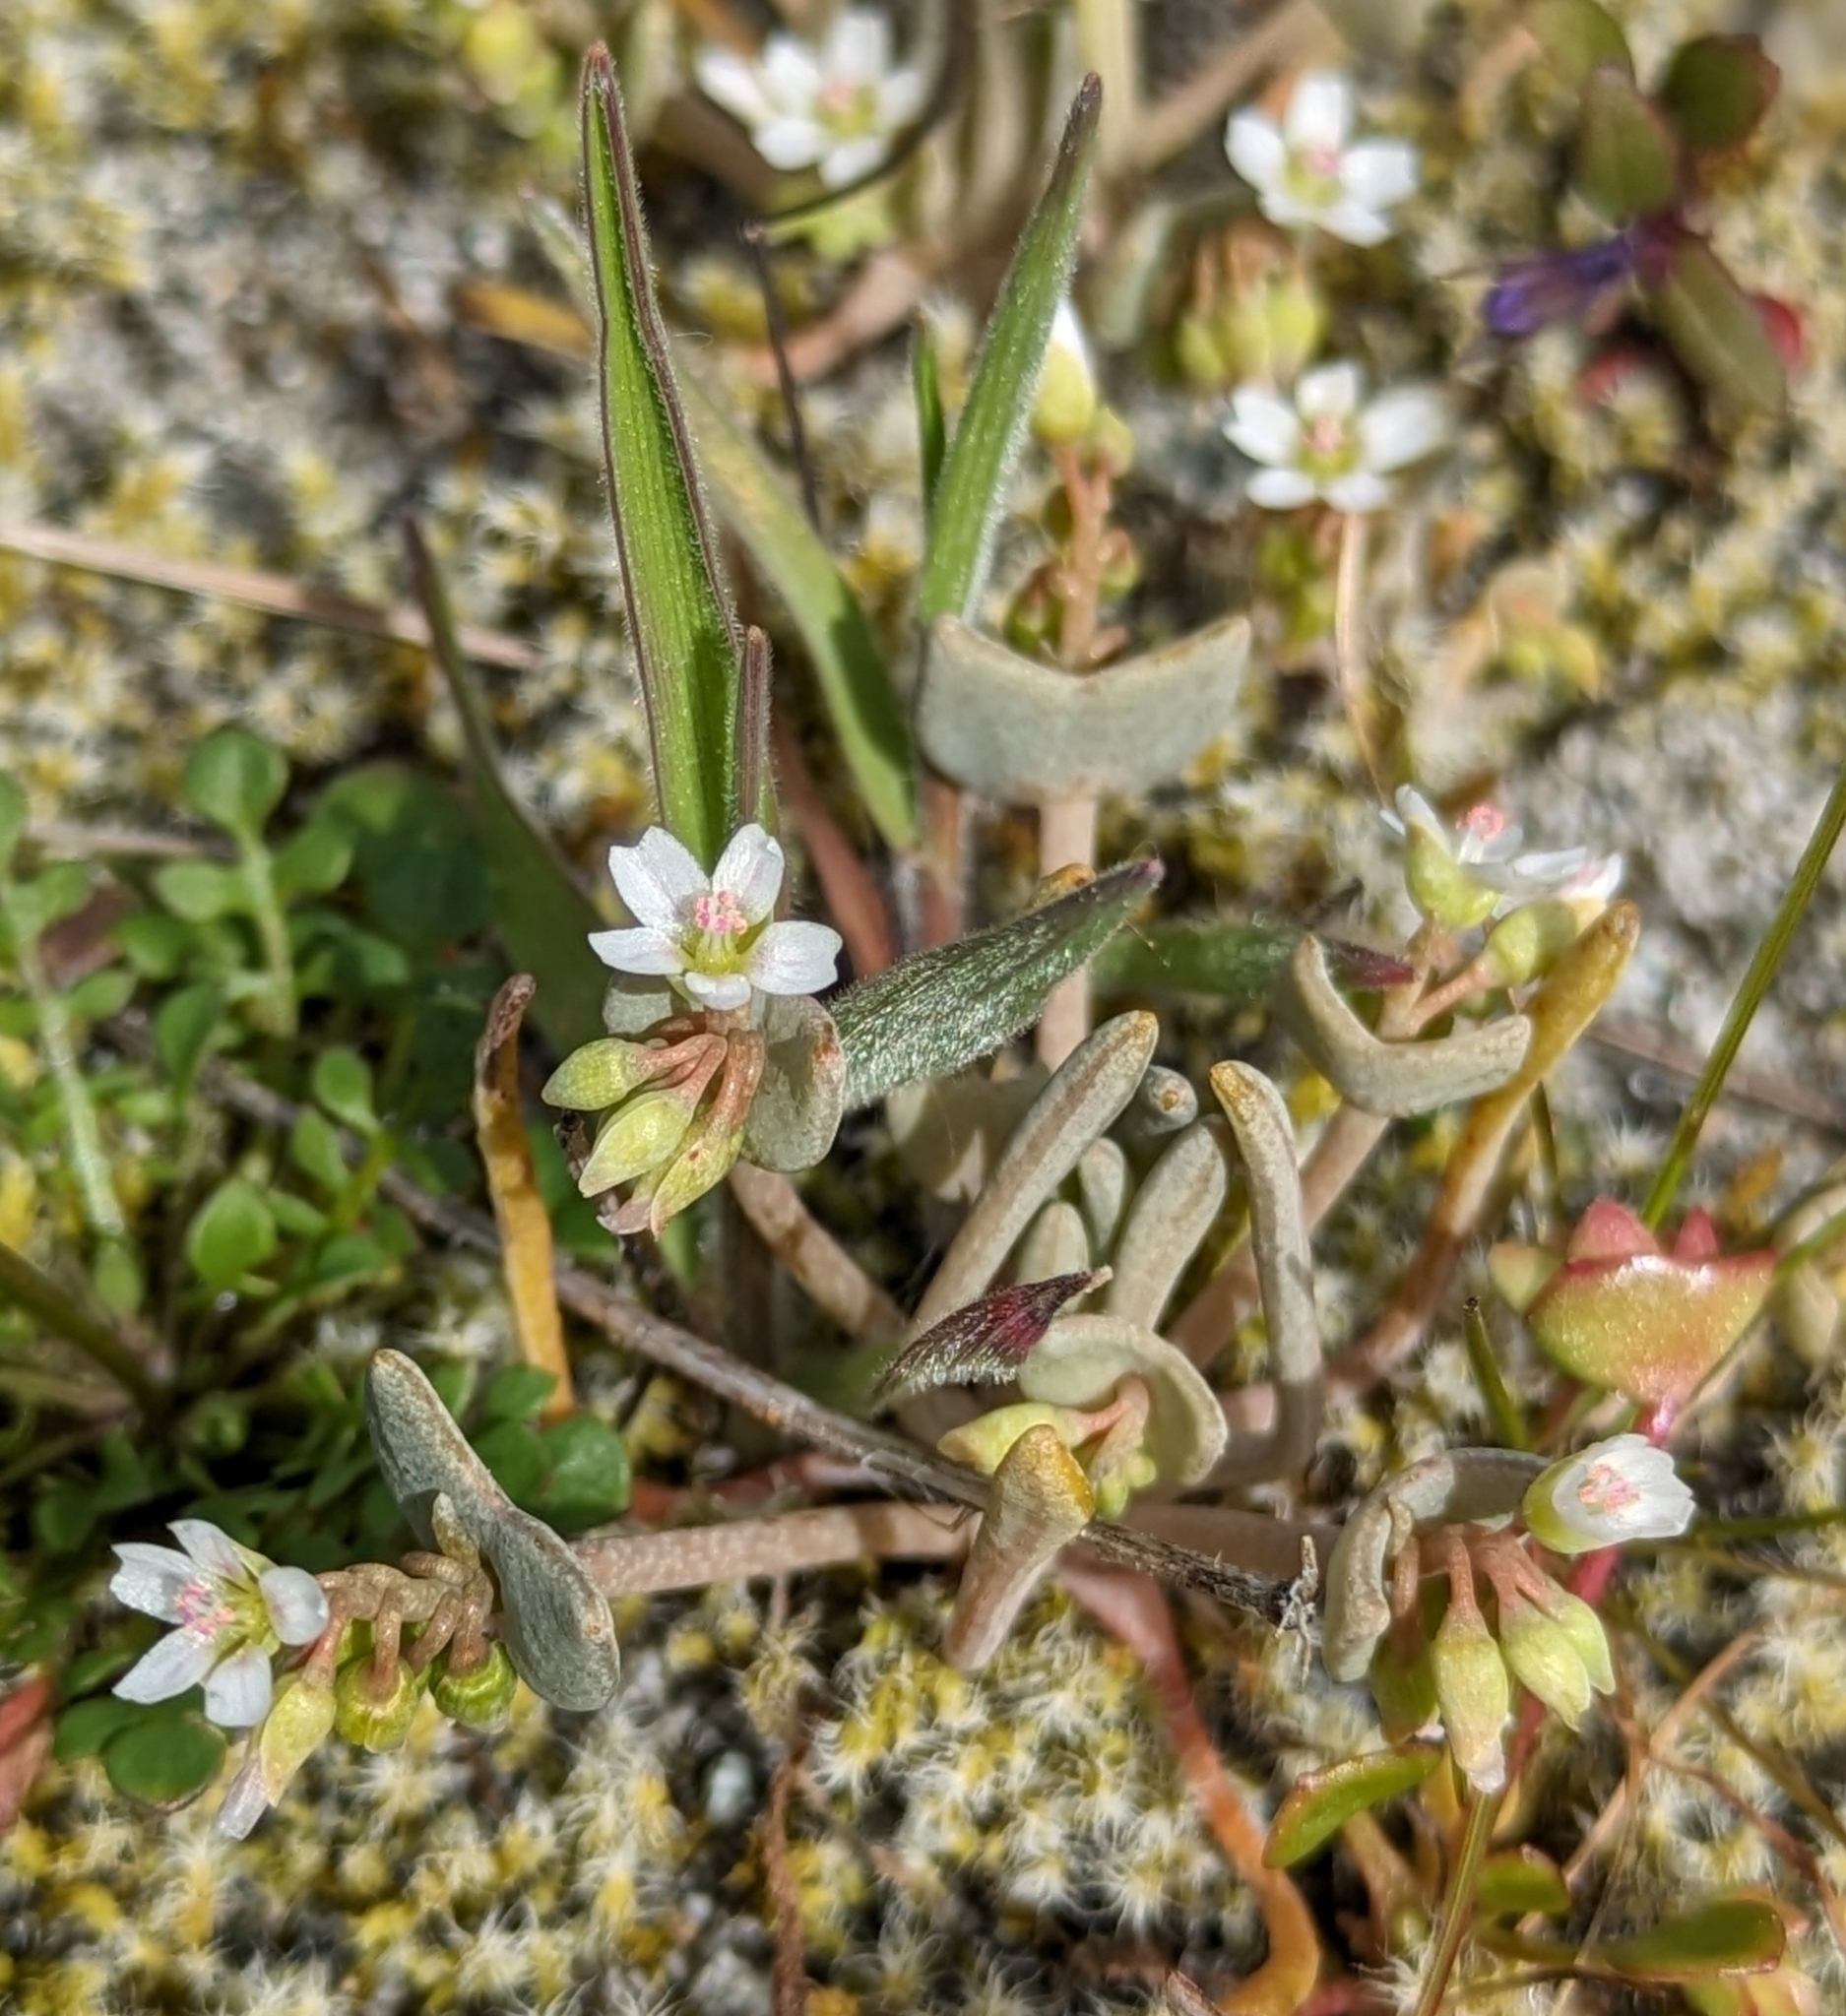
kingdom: Plantae
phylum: Tracheophyta
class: Magnoliopsida
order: Caryophyllales
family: Montiaceae
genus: Claytonia
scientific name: Claytonia exigua
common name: Pale spring beauty
